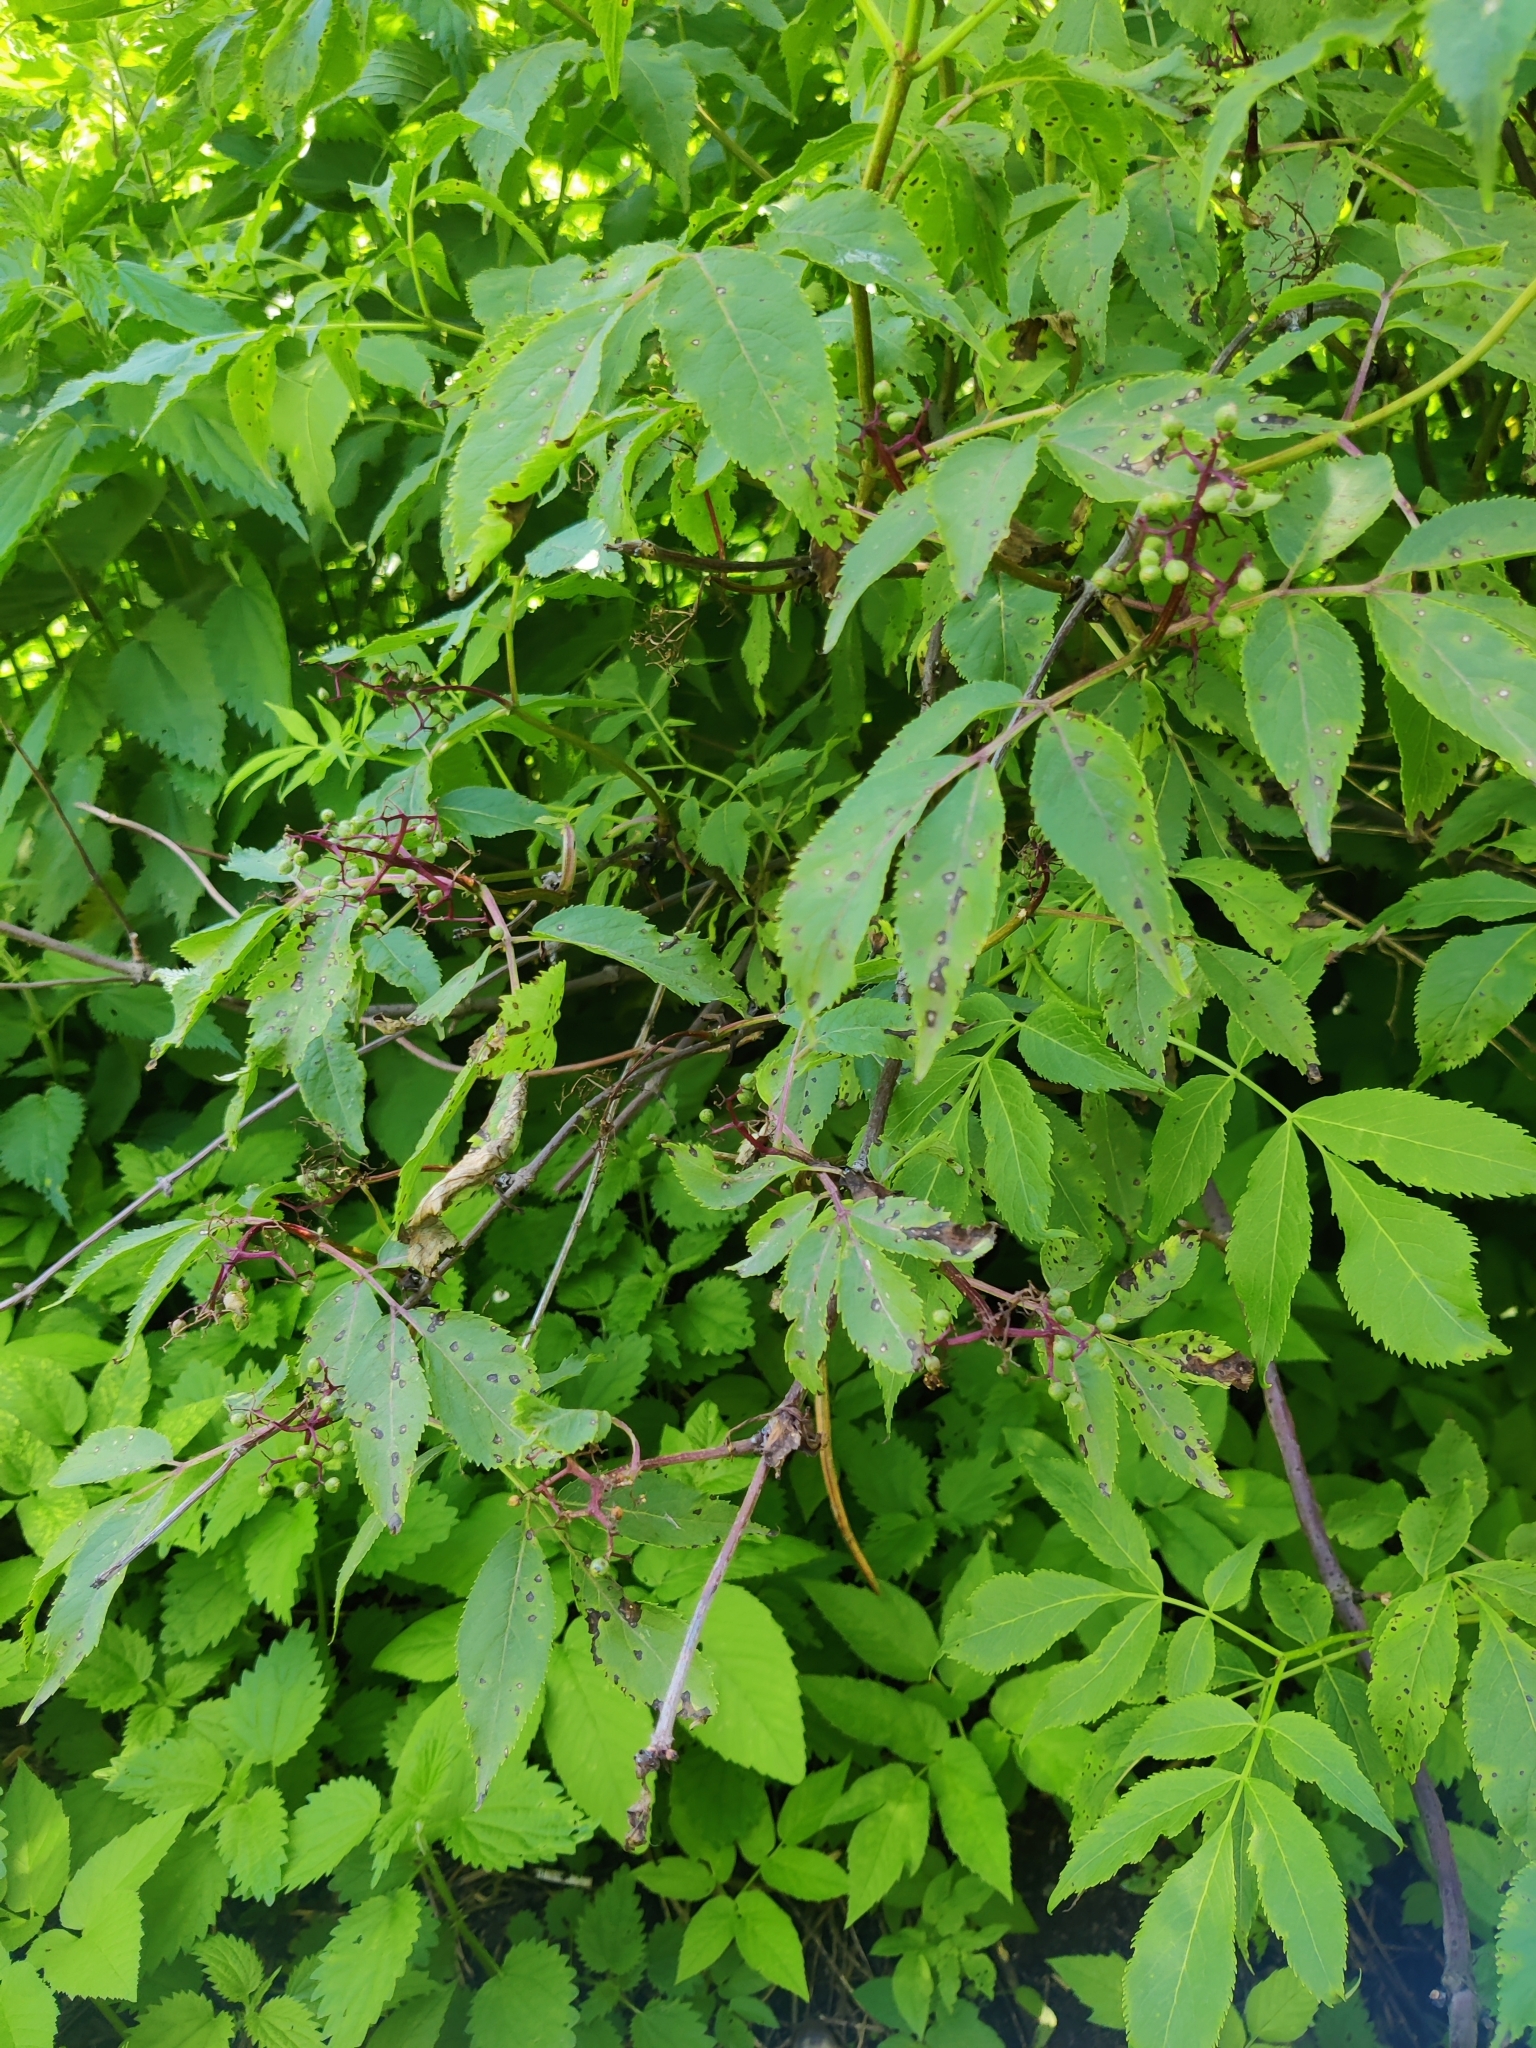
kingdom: Plantae
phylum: Tracheophyta
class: Magnoliopsida
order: Dipsacales
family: Viburnaceae
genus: Sambucus
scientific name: Sambucus racemosa
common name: Red-berried elder
